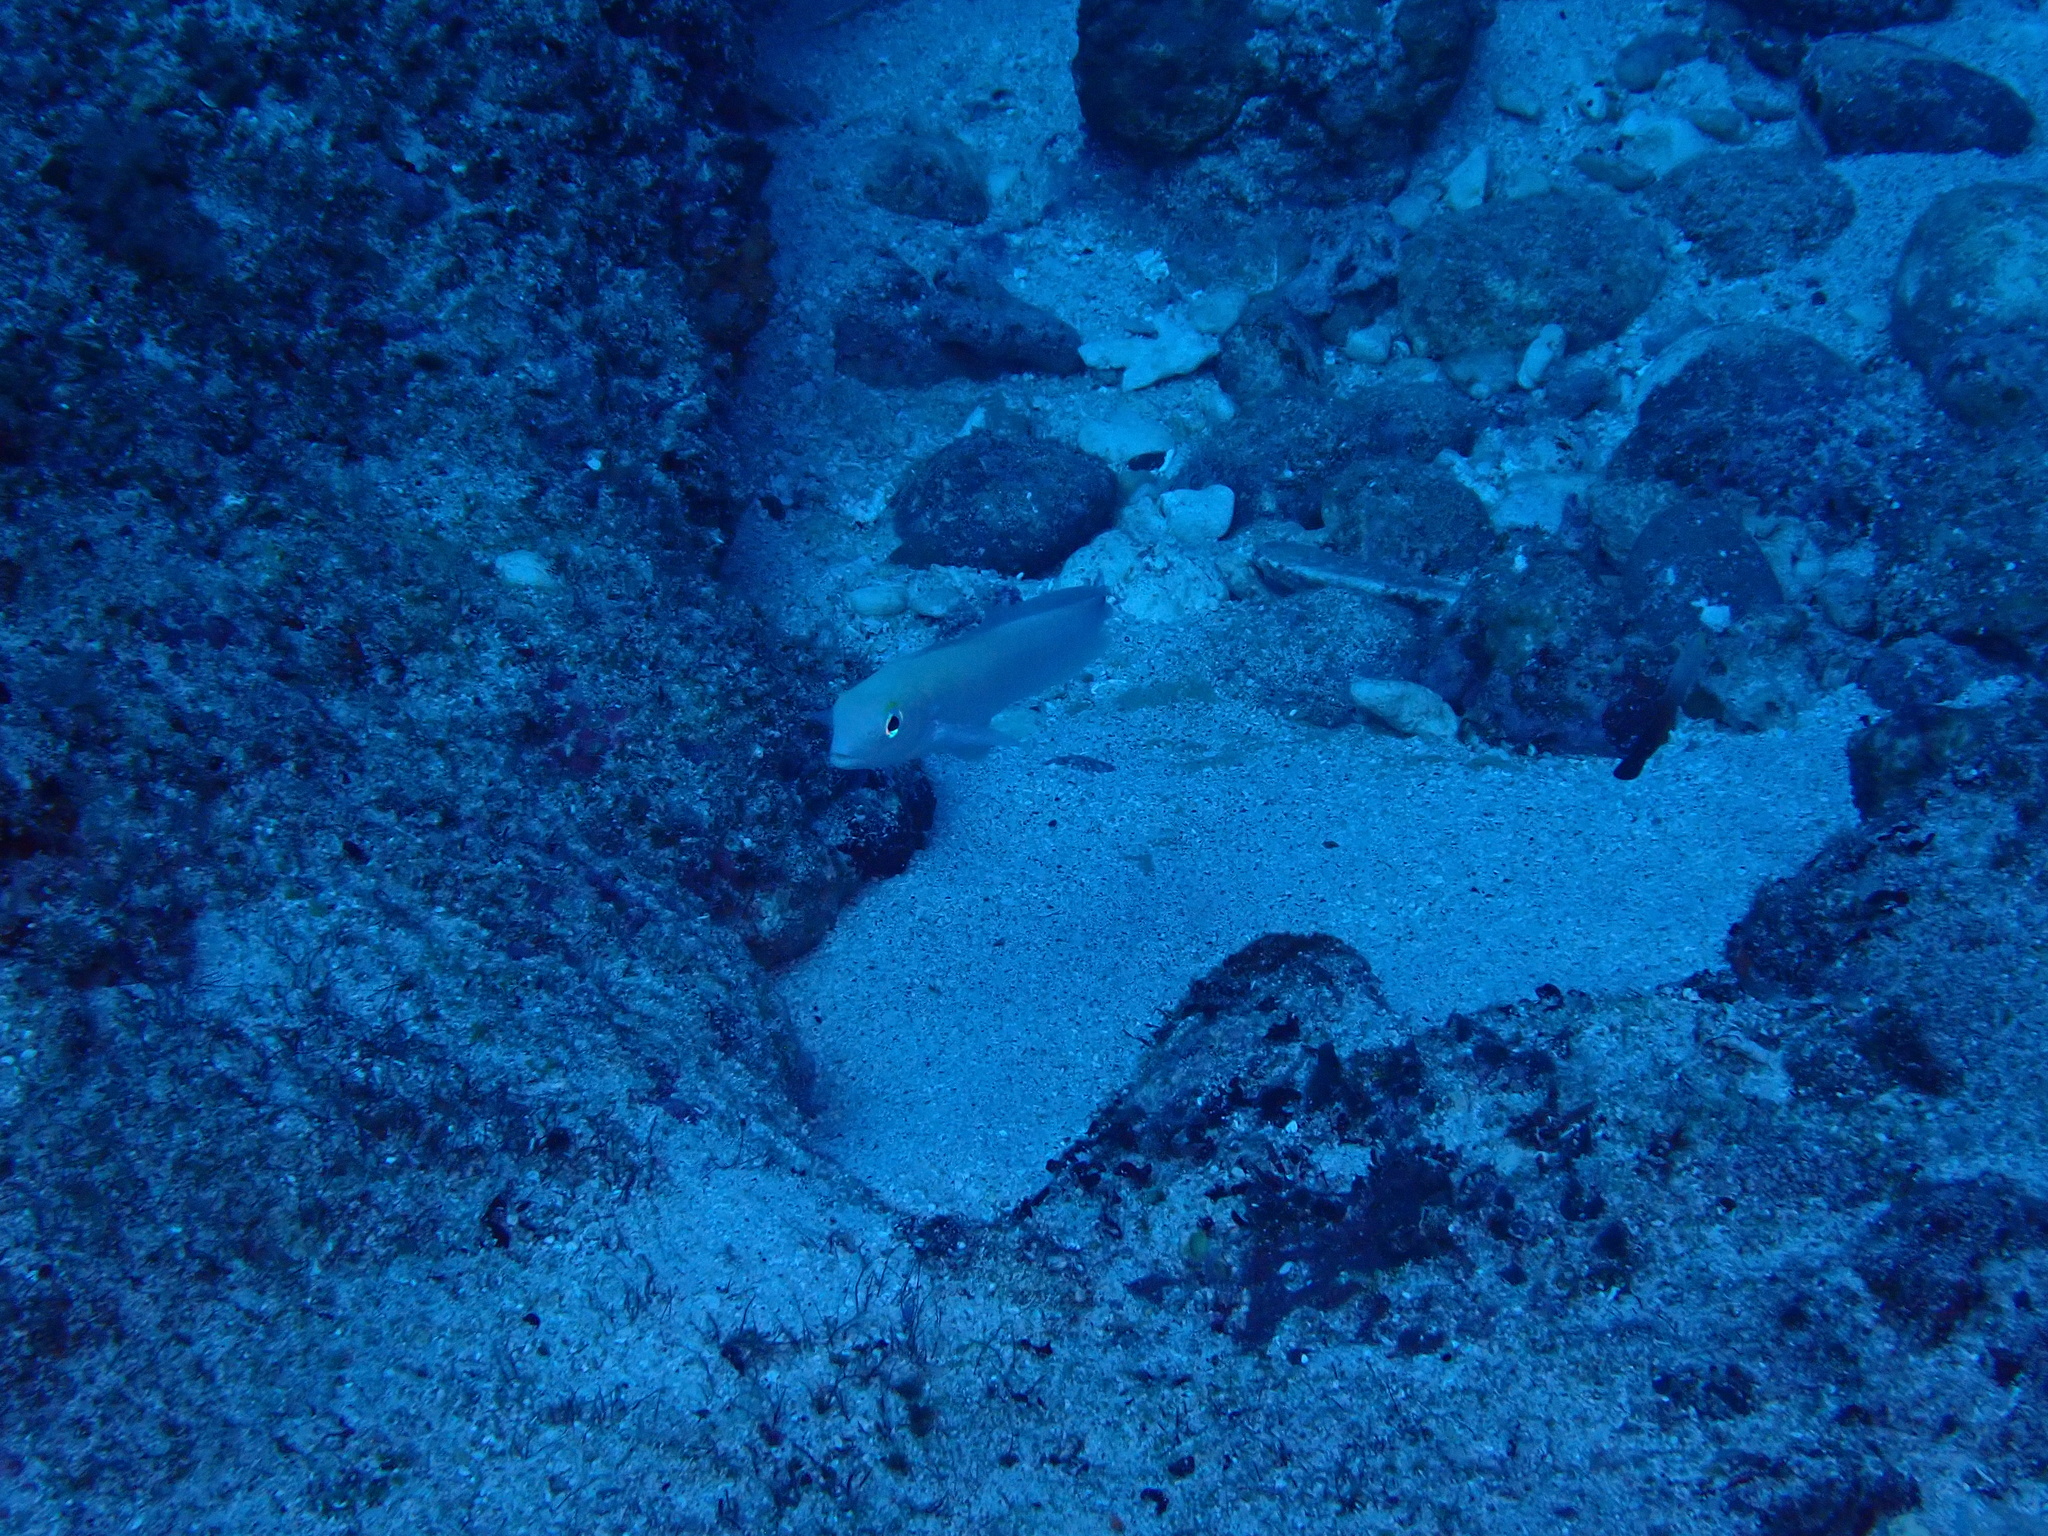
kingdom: Animalia
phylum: Chordata
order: Perciformes
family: Malacanthidae
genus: Malacanthus
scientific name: Malacanthus brevirostris
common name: Flagtail blanquillo
